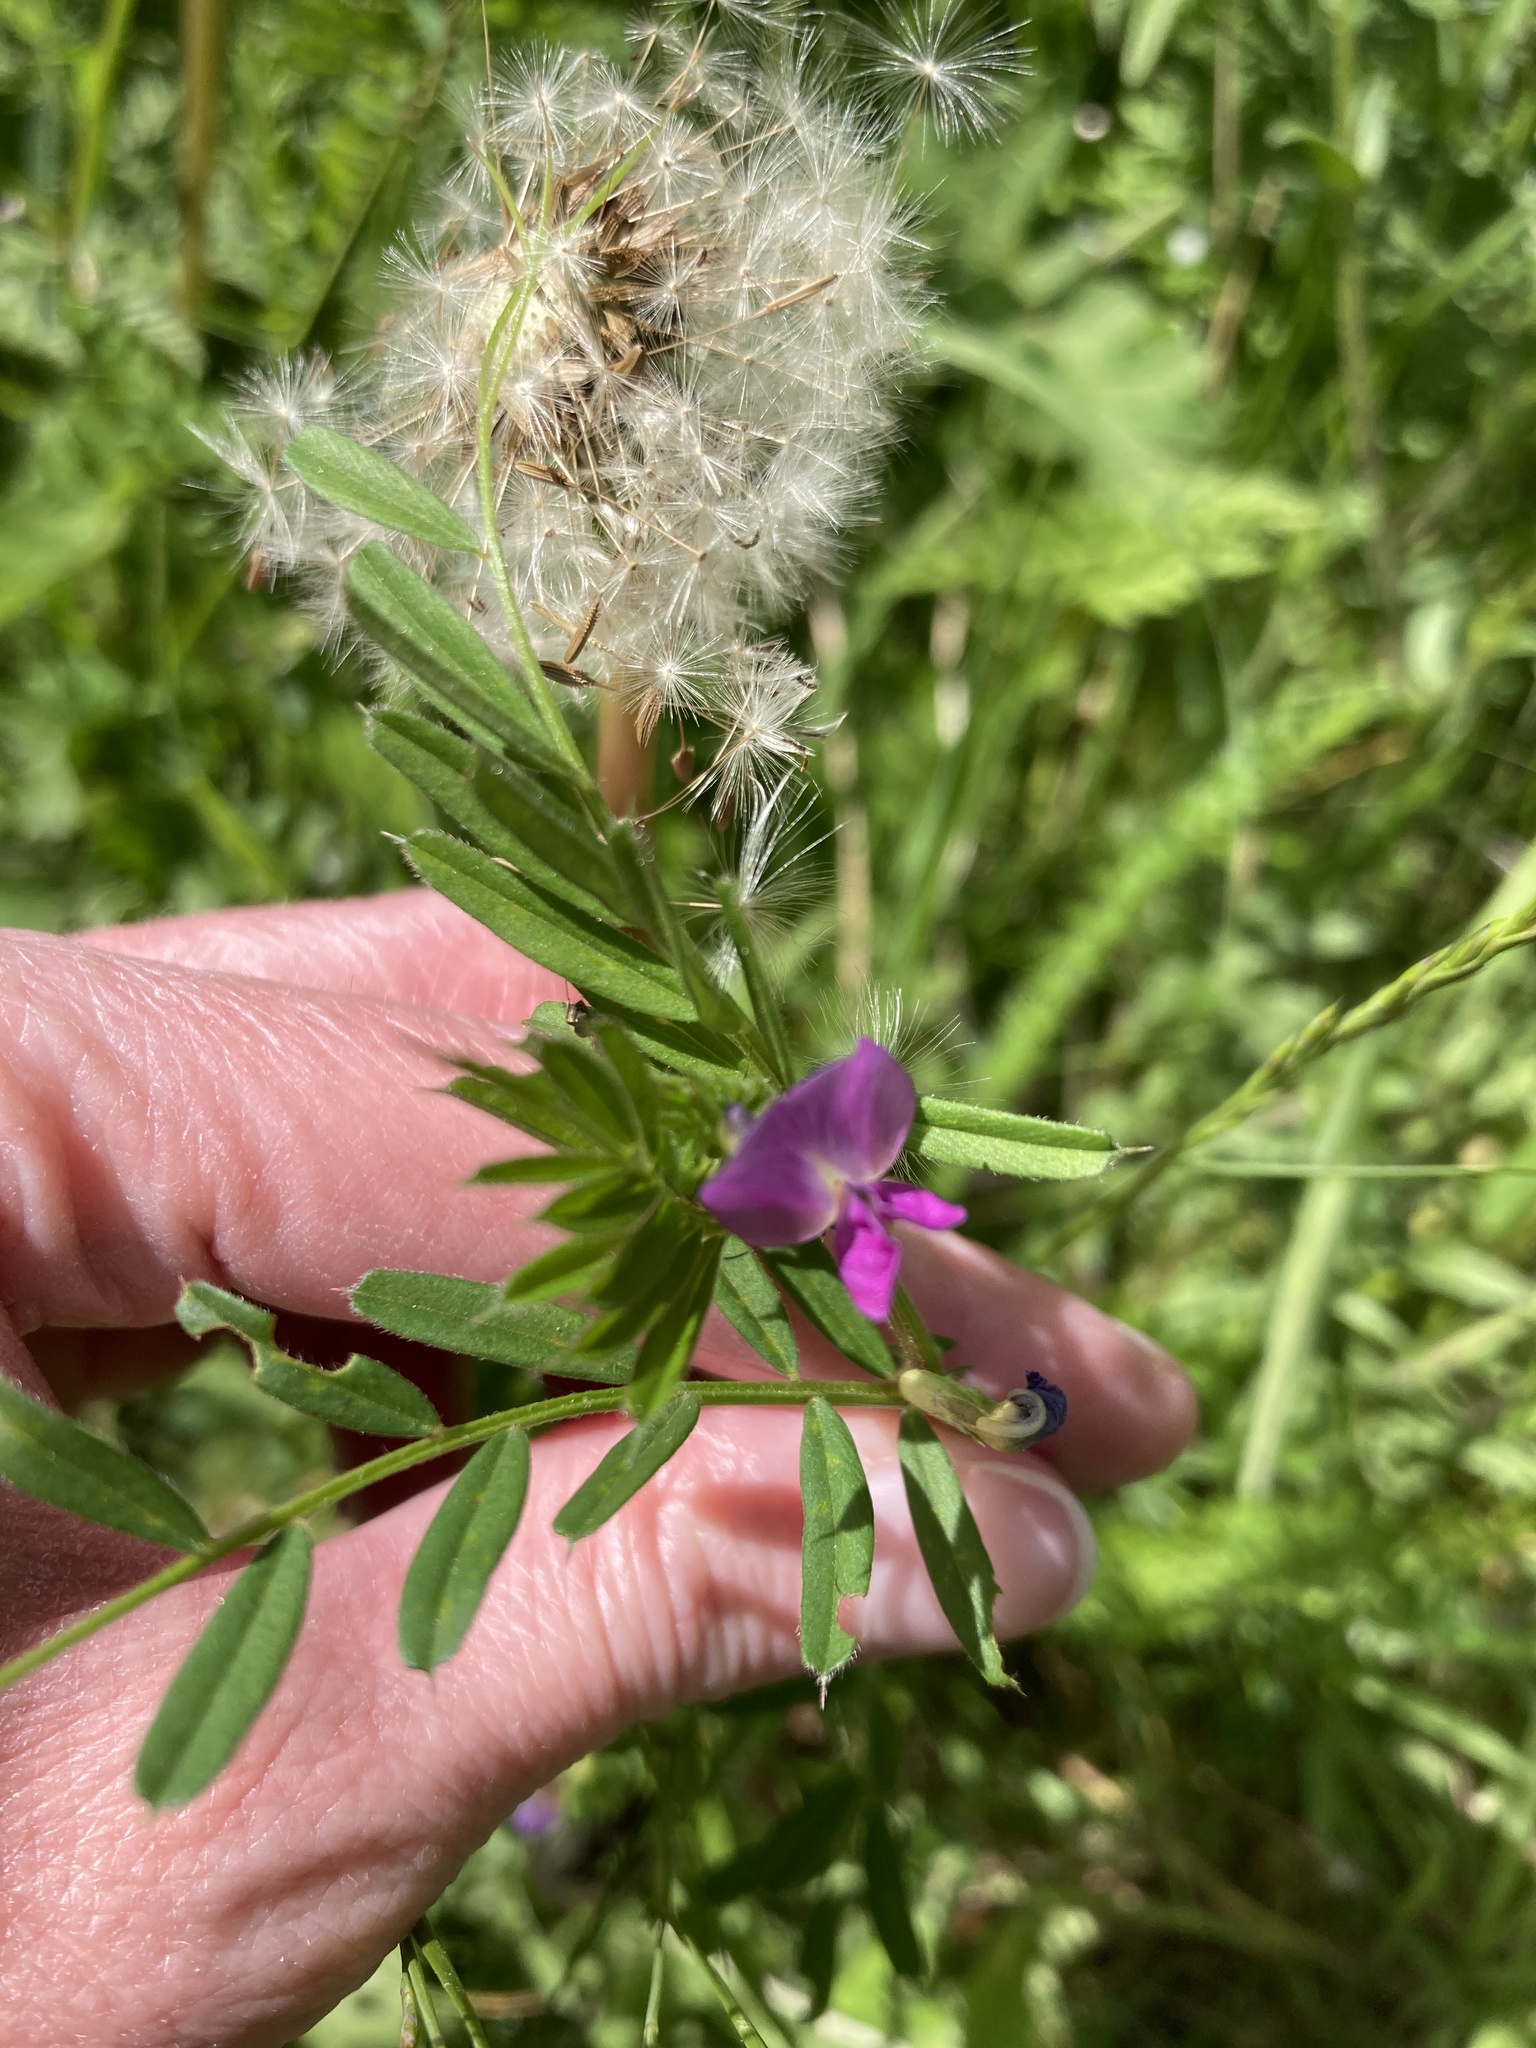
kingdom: Plantae
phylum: Tracheophyta
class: Magnoliopsida
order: Fabales
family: Fabaceae
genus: Vicia
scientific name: Vicia sativa
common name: Garden vetch
